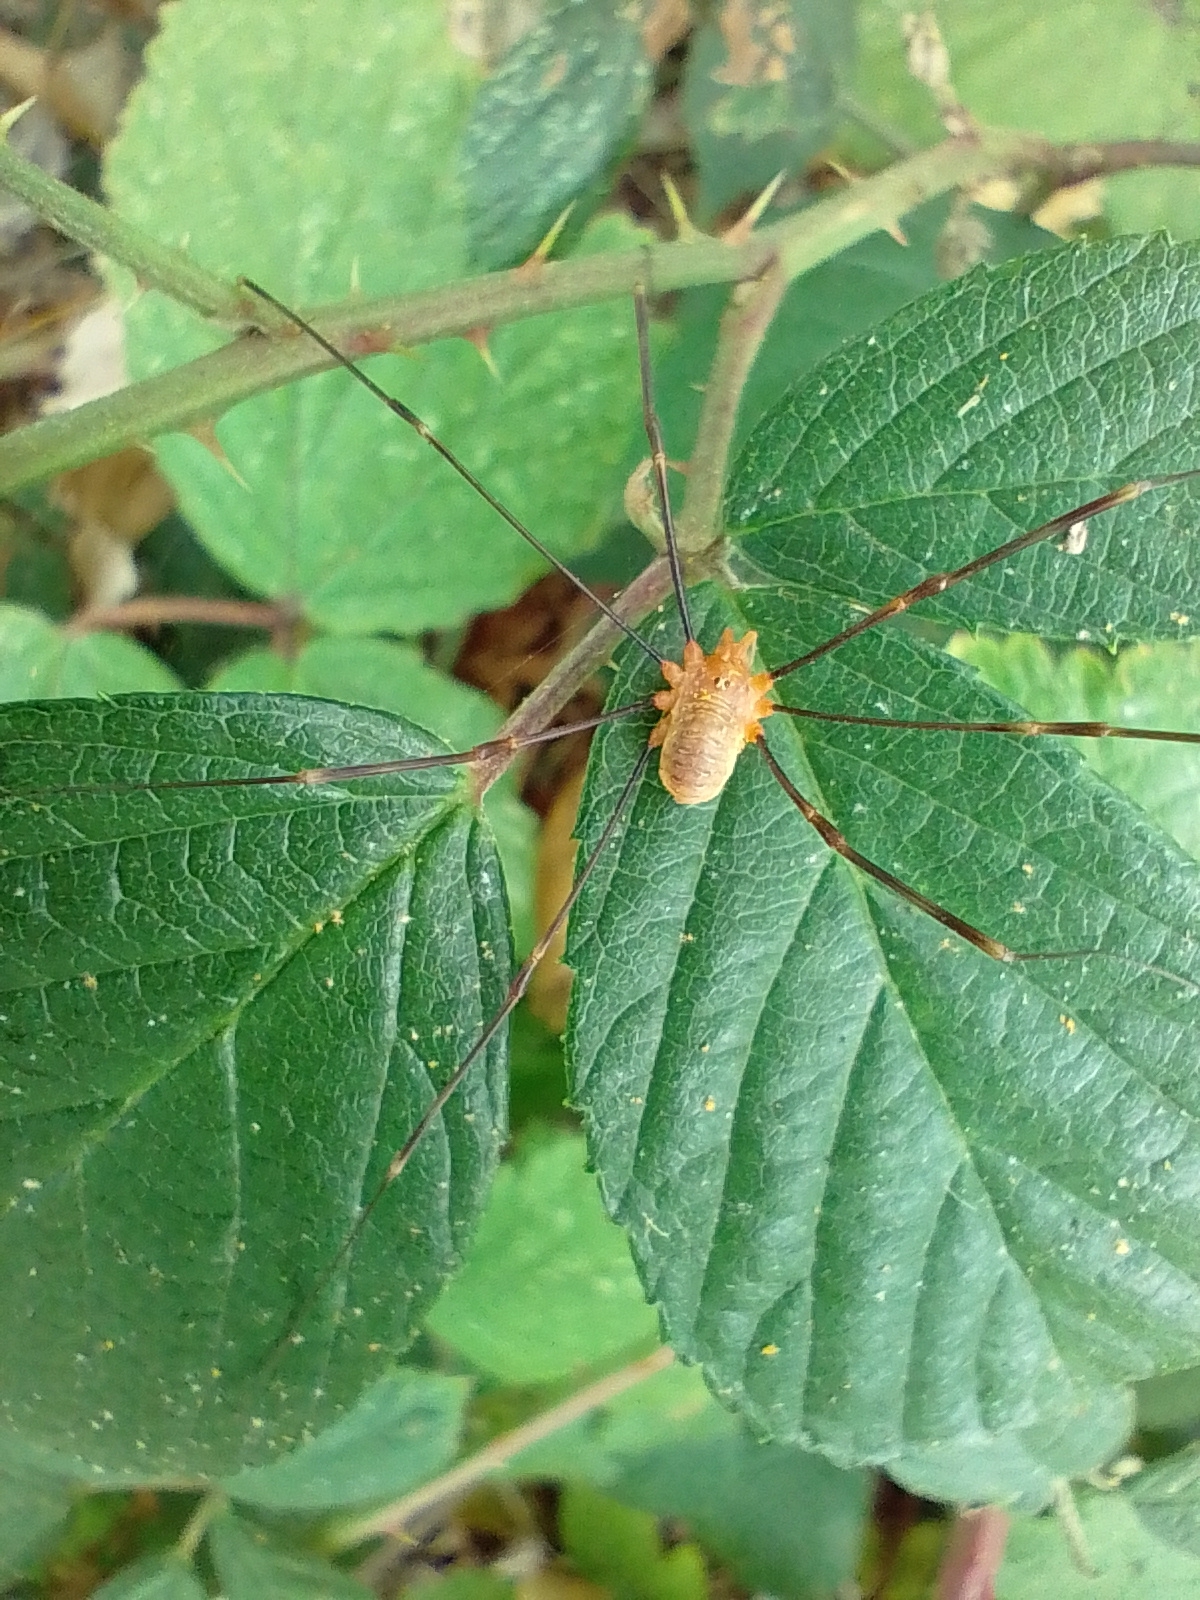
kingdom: Animalia
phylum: Arthropoda
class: Arachnida
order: Opiliones
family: Phalangiidae
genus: Opilio
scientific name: Opilio canestrinii
